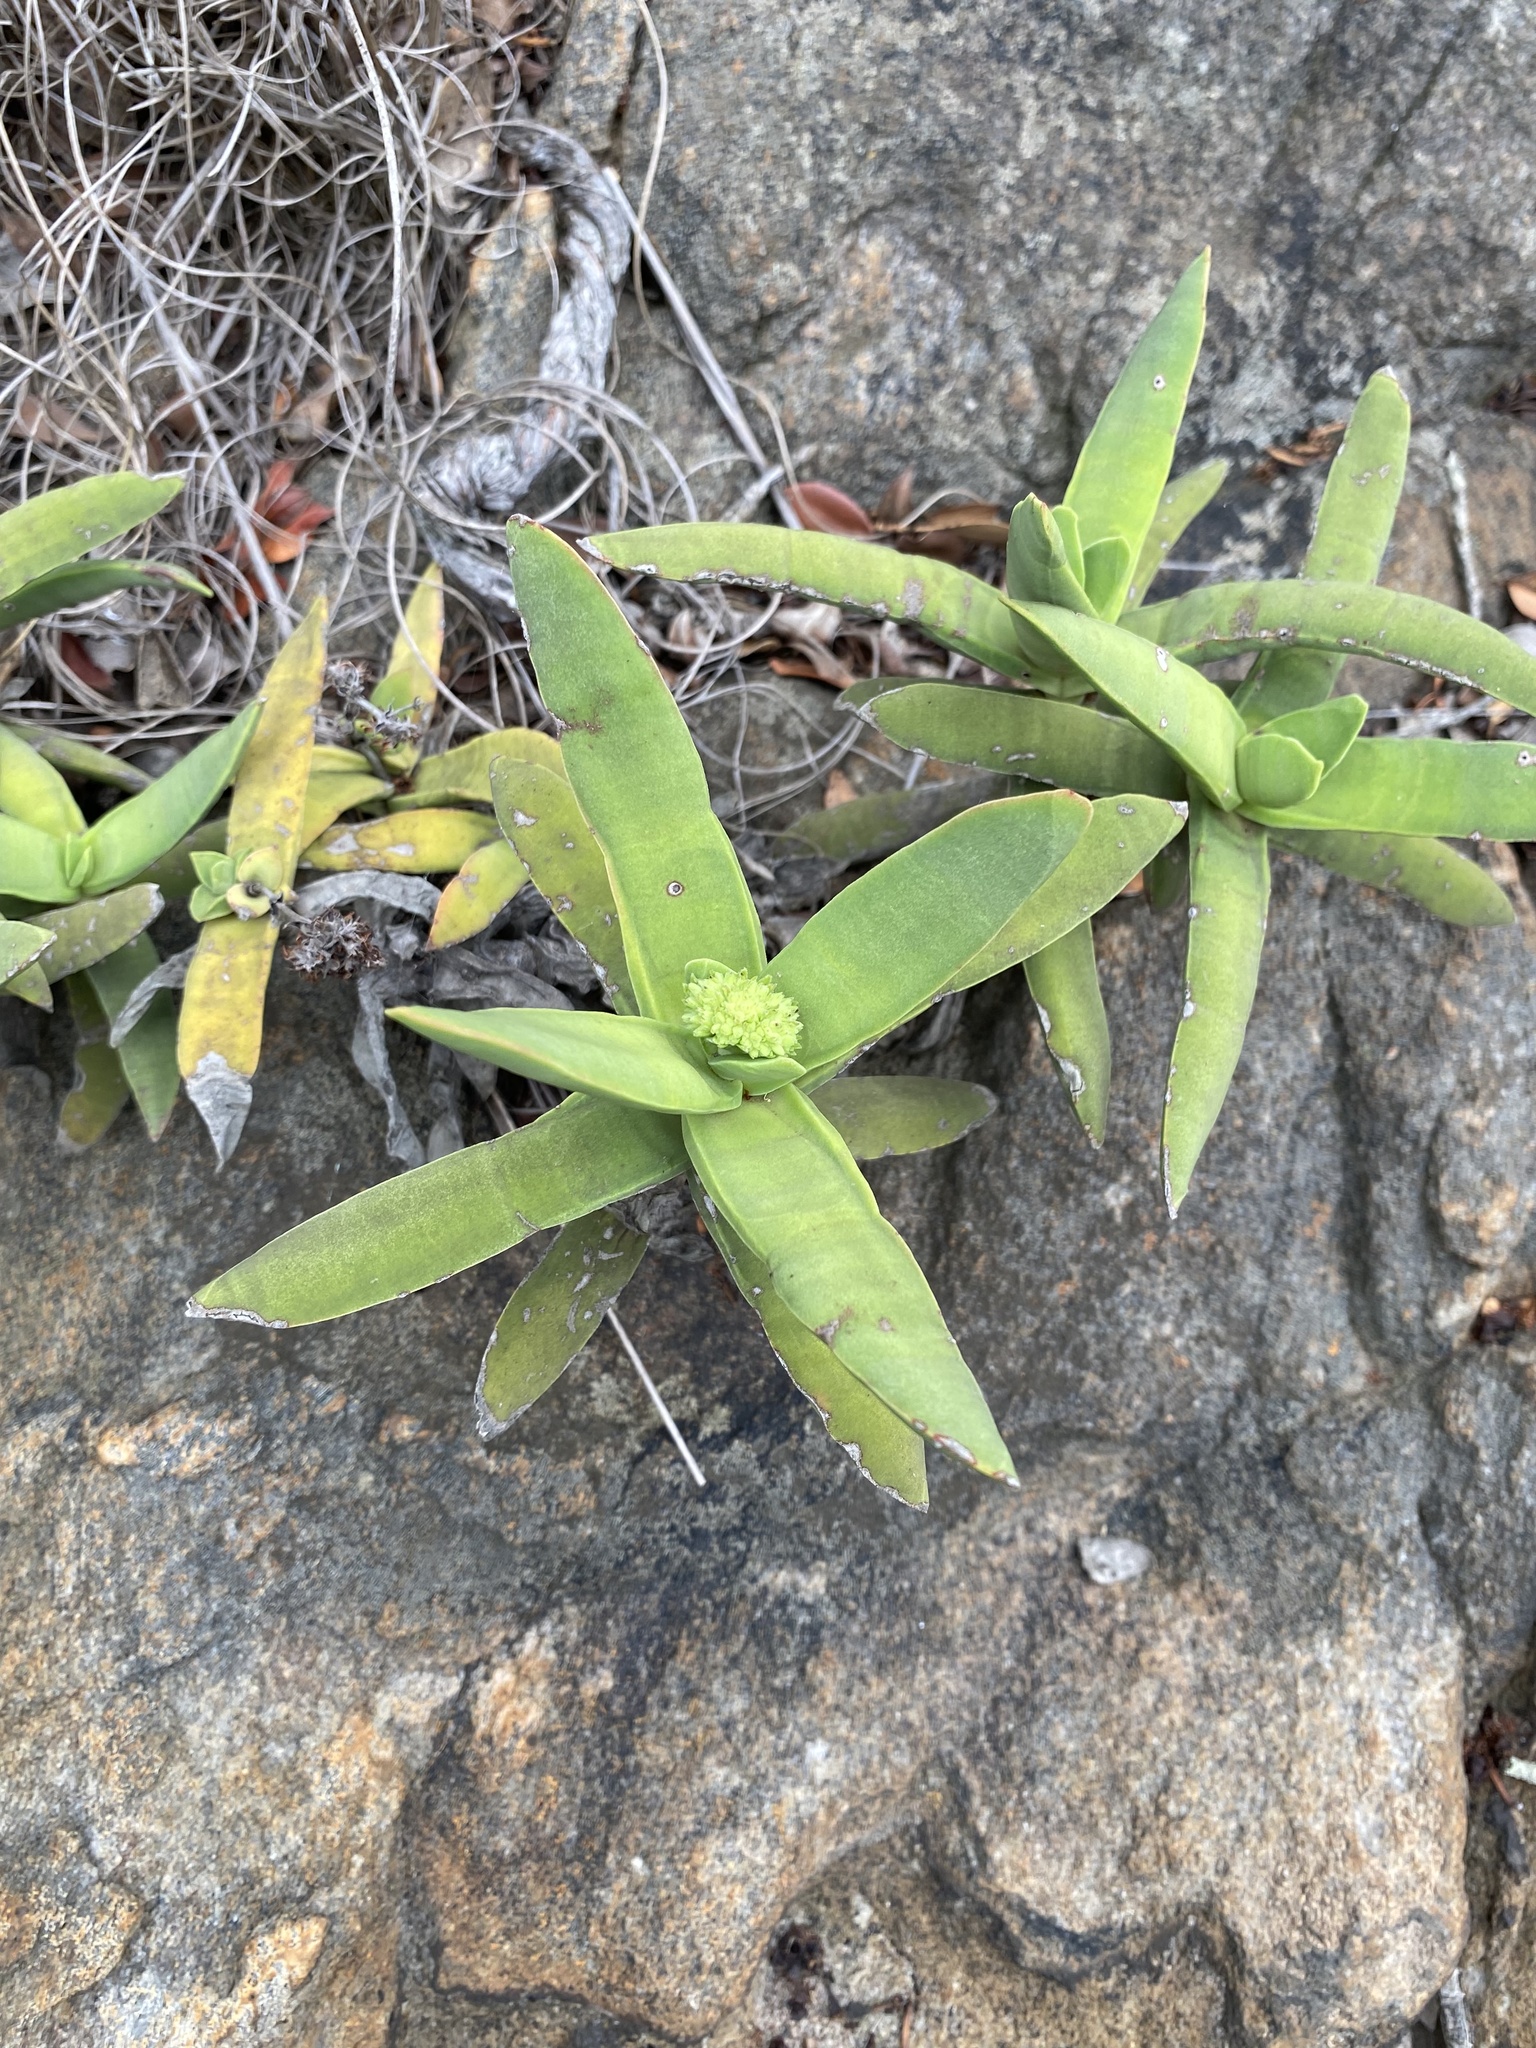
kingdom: Plantae
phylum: Tracheophyta
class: Magnoliopsida
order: Saxifragales
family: Crassulaceae
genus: Crassula
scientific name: Crassula perfoliata
